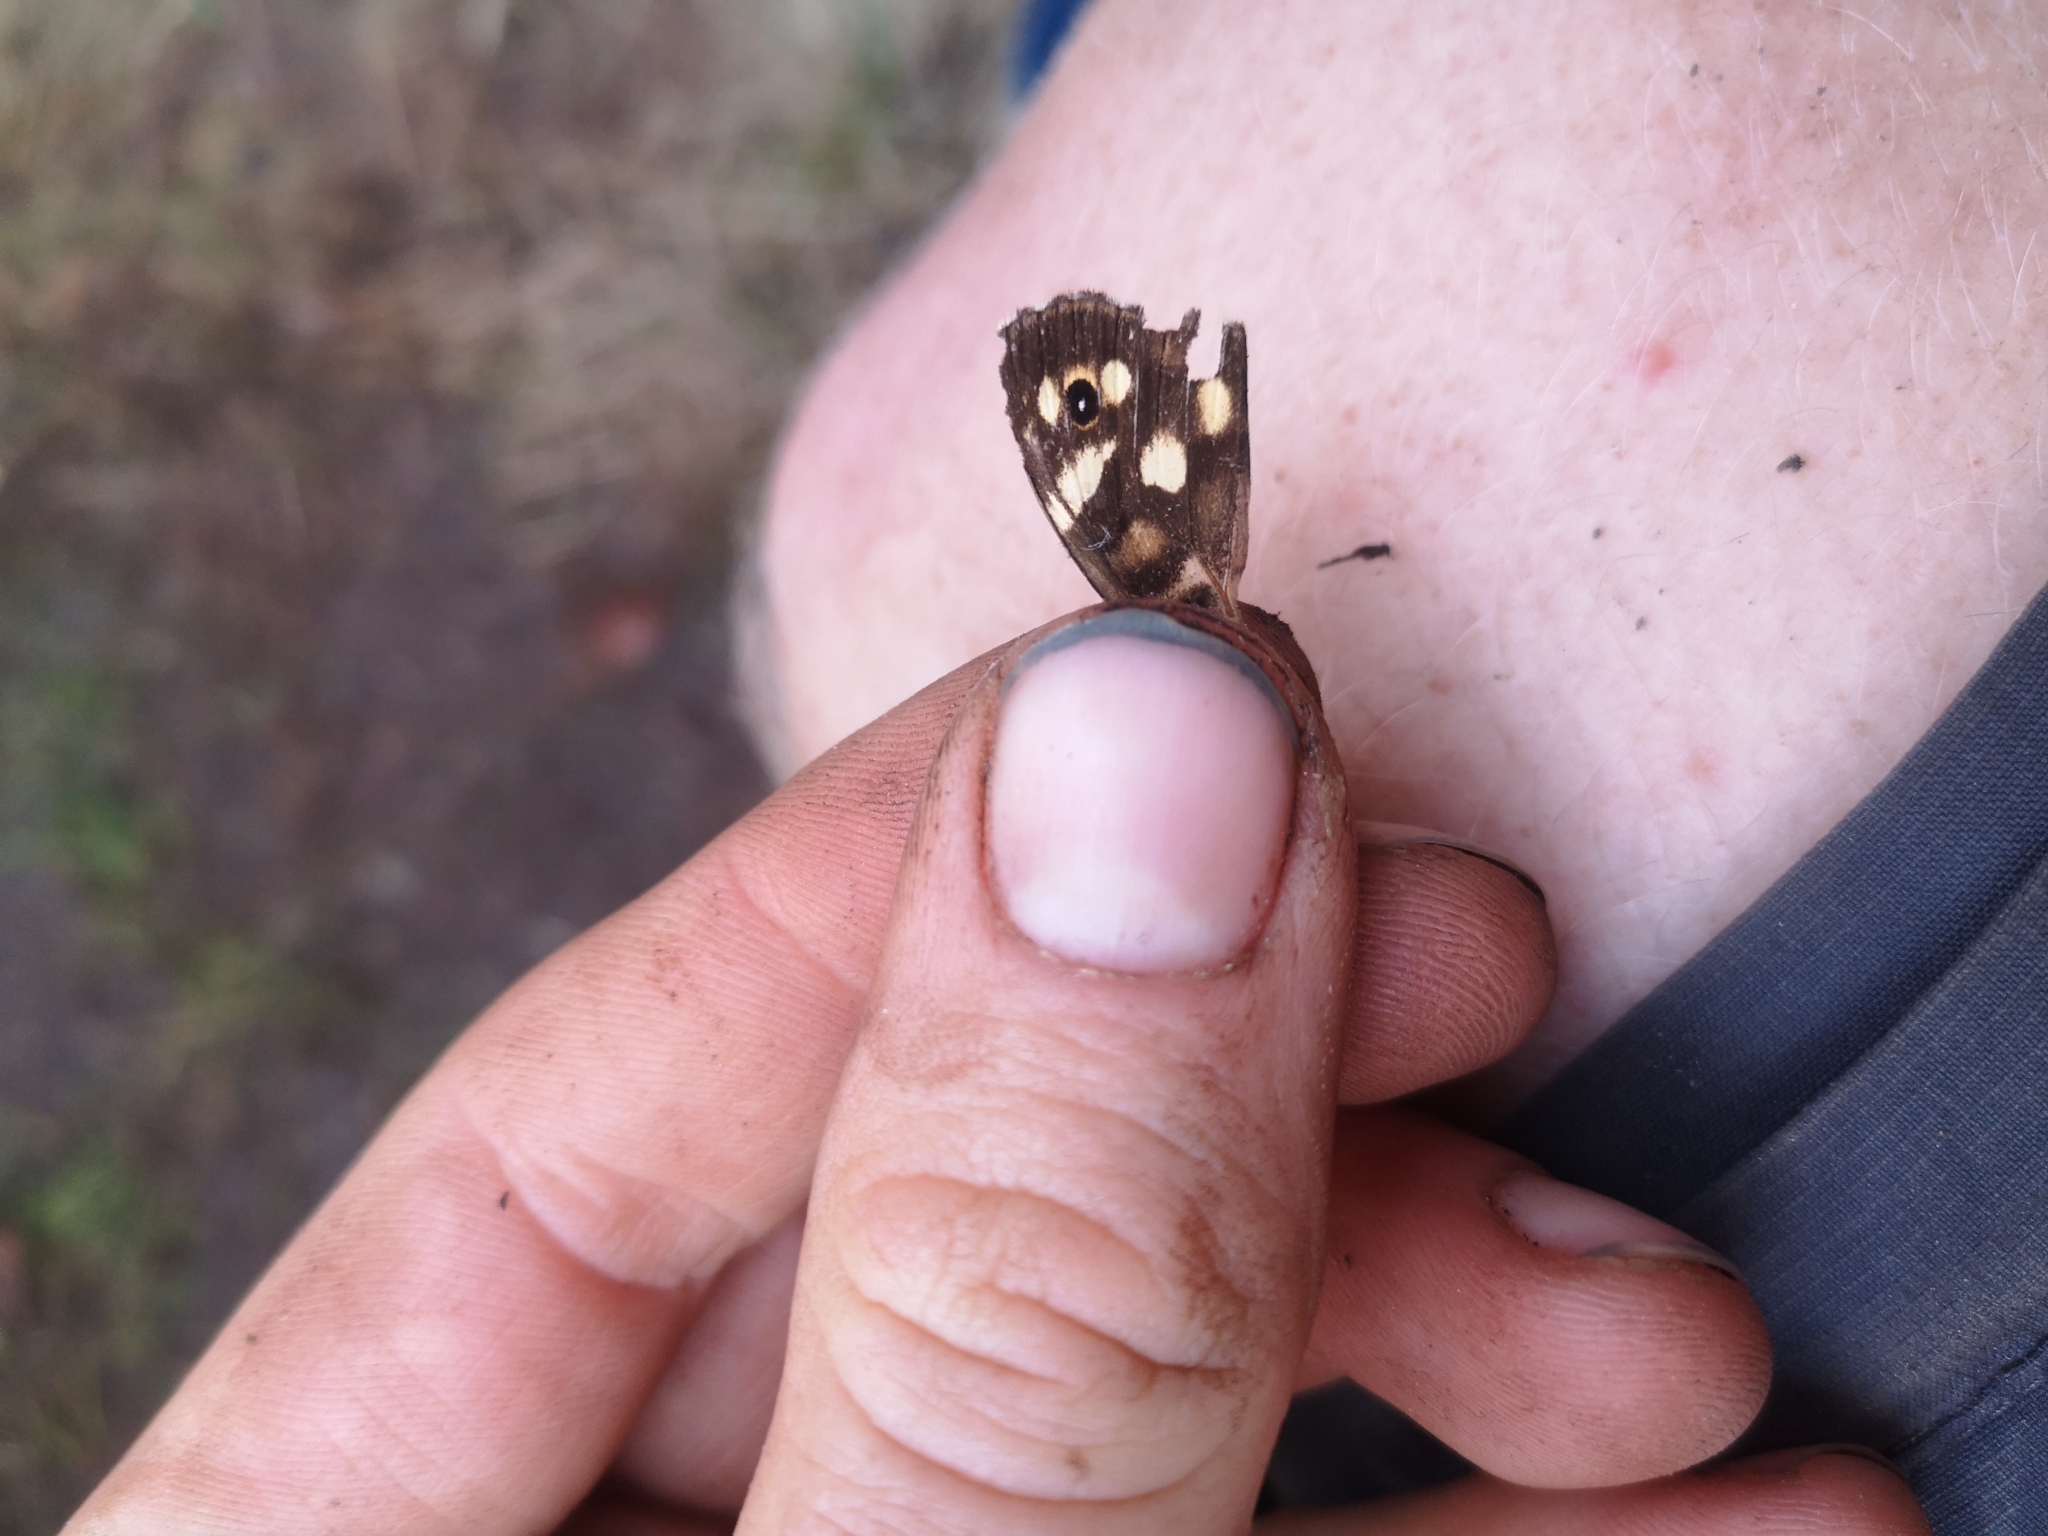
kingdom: Animalia
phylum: Arthropoda
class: Insecta
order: Lepidoptera
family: Nymphalidae
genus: Pararge
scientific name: Pararge aegeria
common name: Speckled wood
